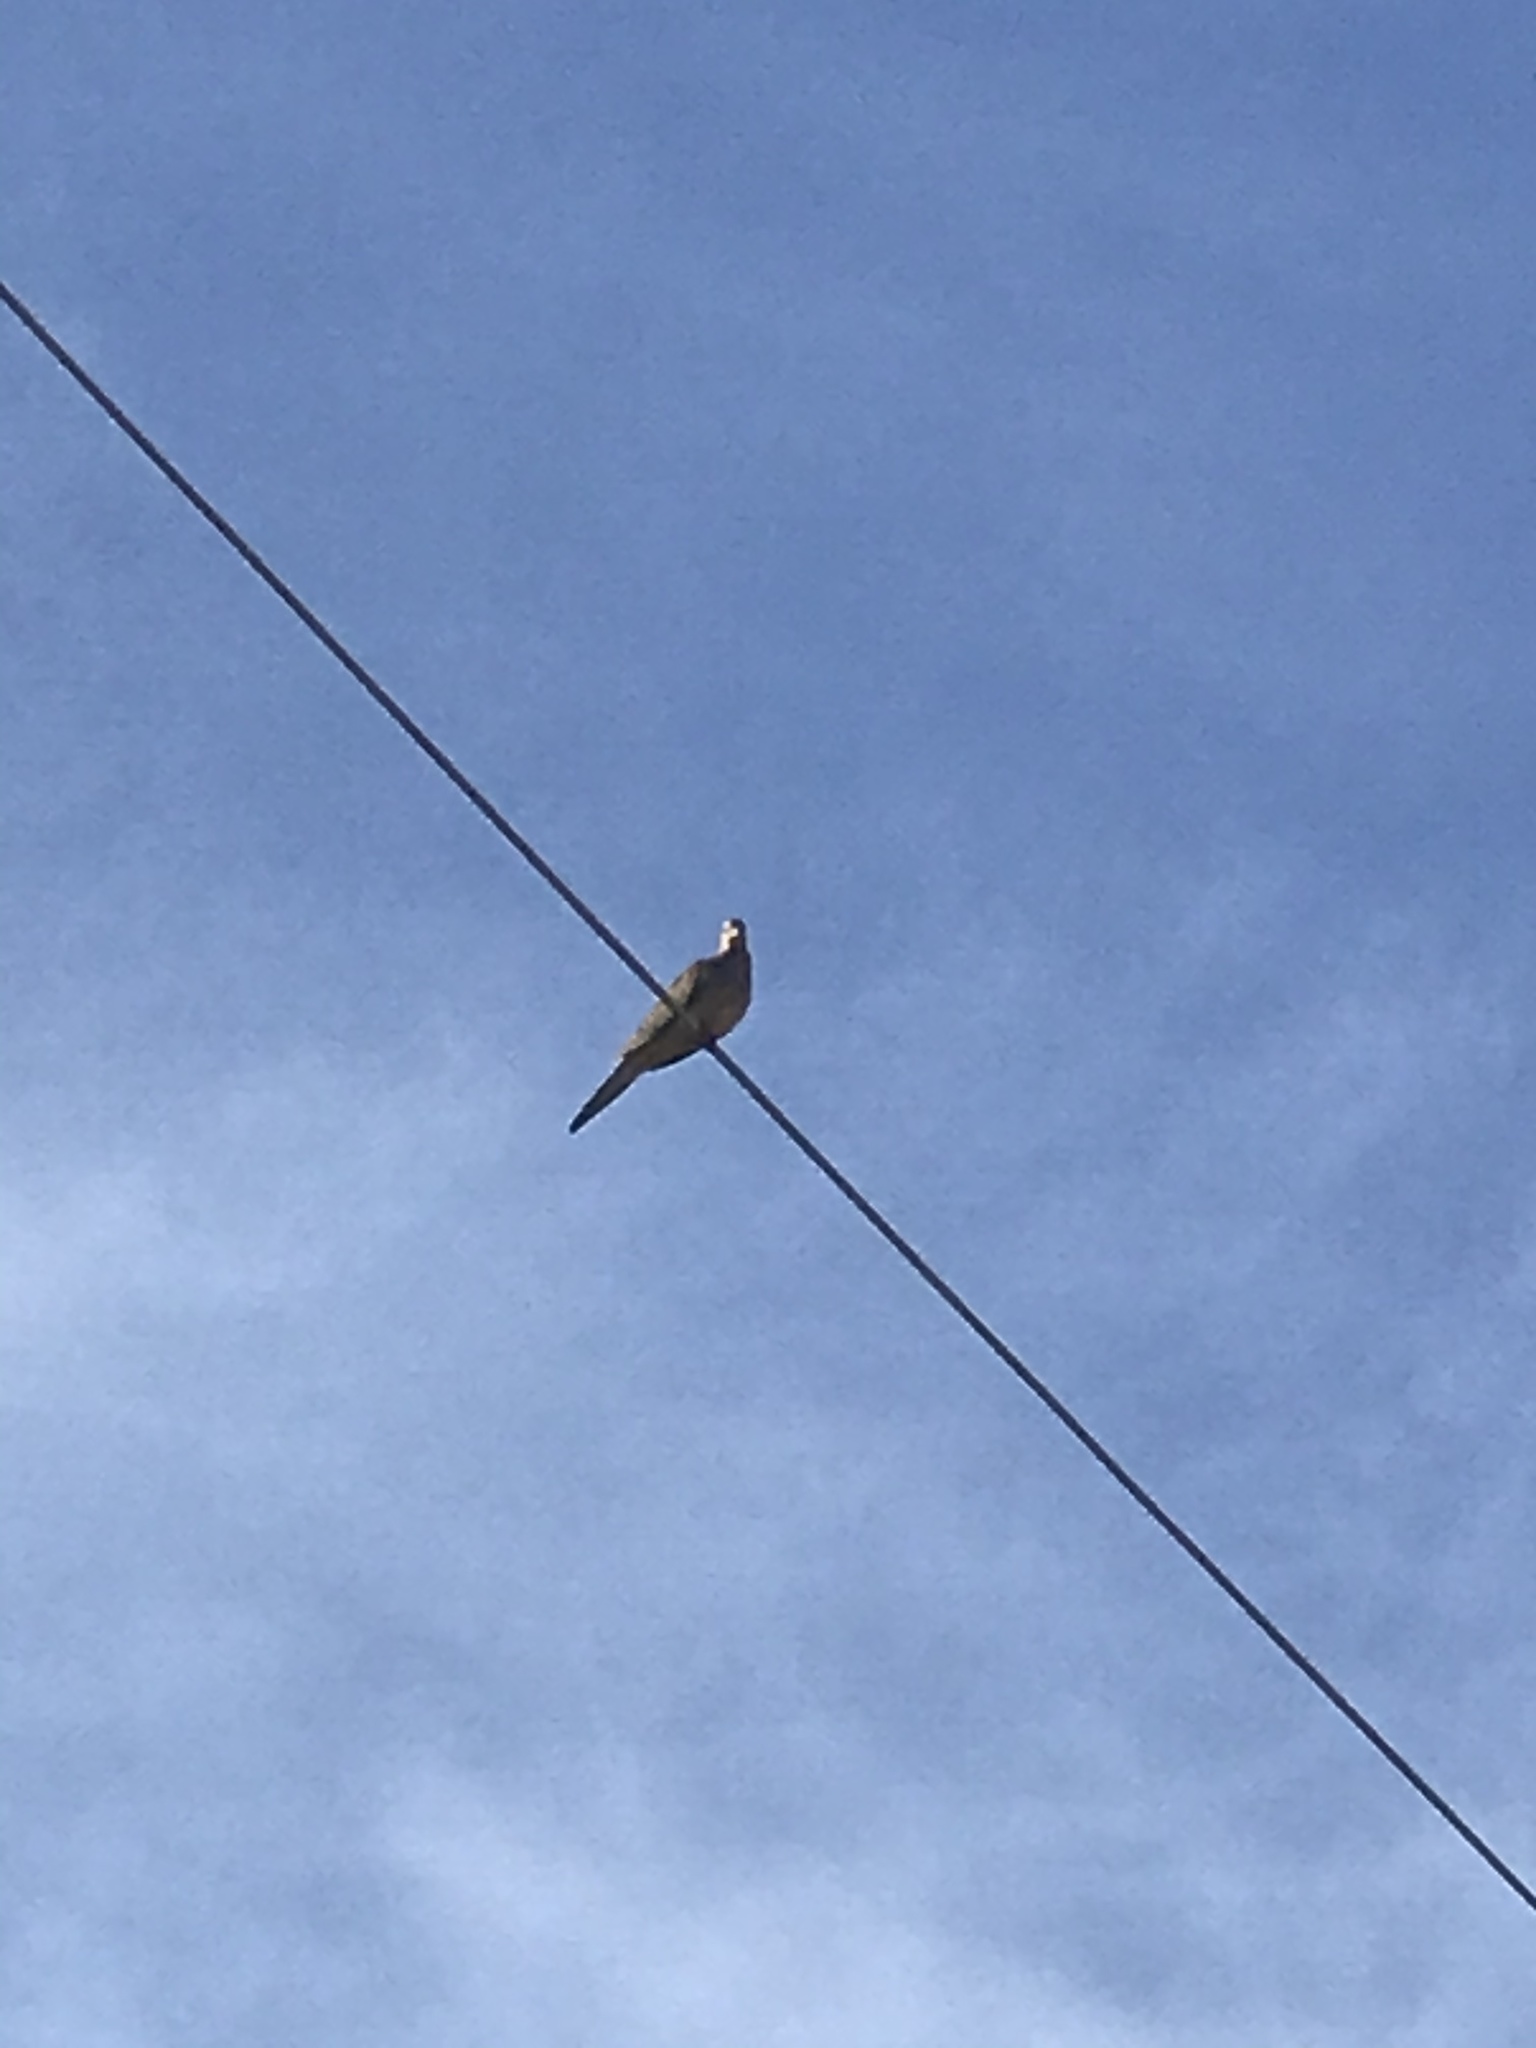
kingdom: Animalia
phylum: Chordata
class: Aves
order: Columbiformes
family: Columbidae
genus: Zenaida
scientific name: Zenaida macroura
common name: Mourning dove
